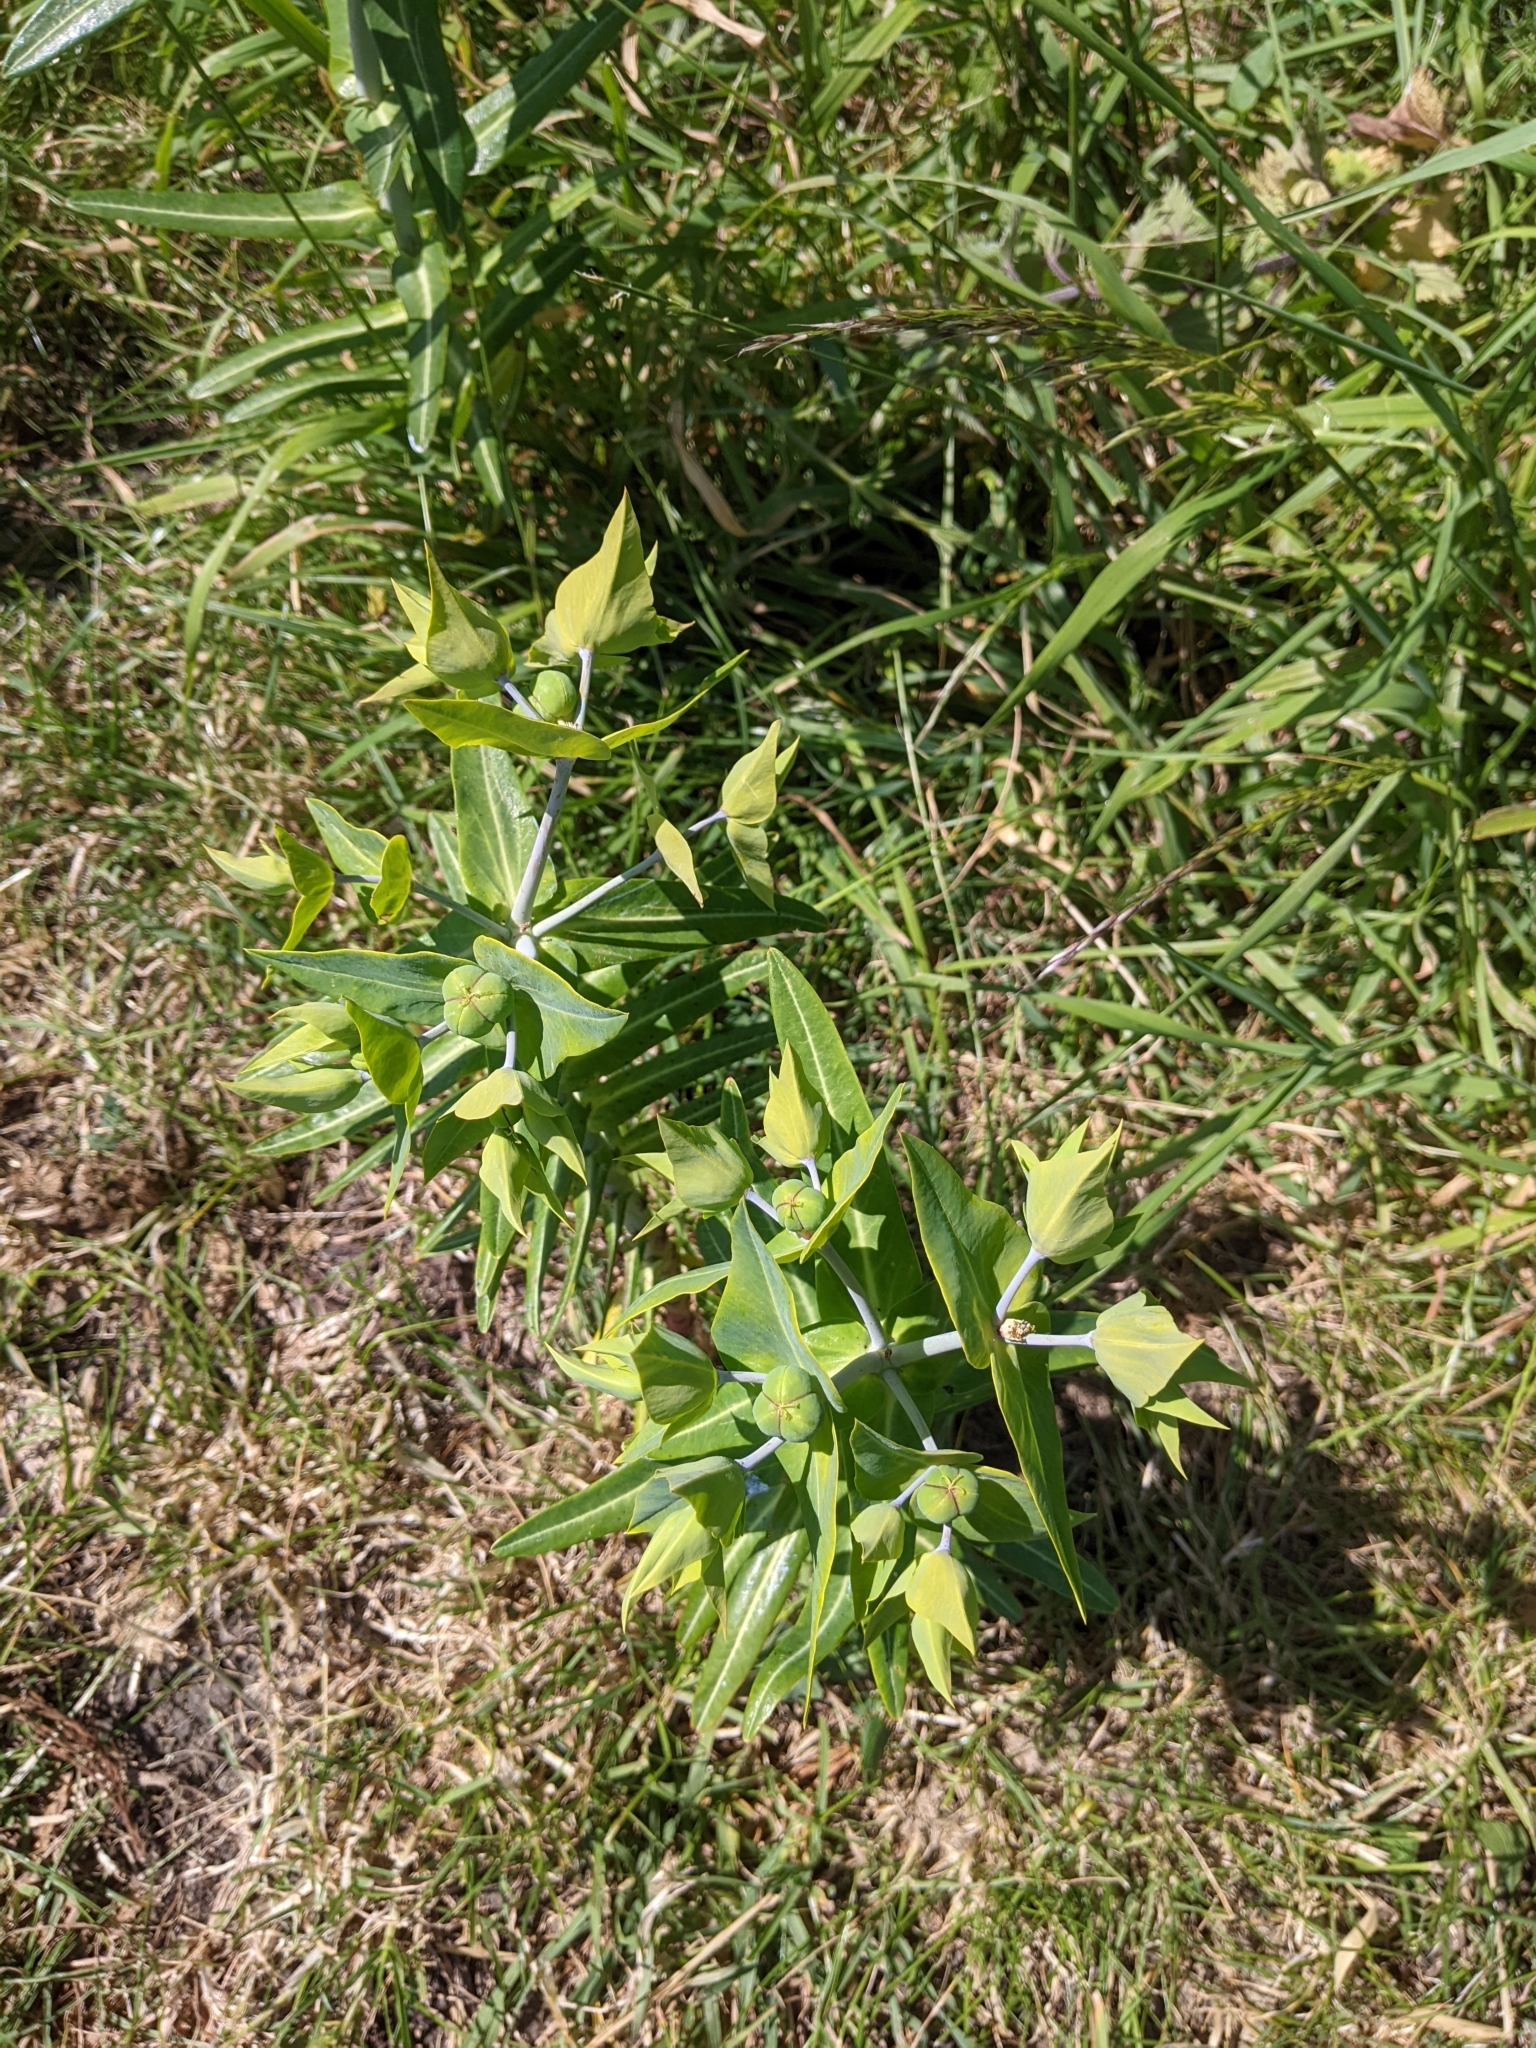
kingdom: Plantae
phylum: Tracheophyta
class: Magnoliopsida
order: Malpighiales
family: Euphorbiaceae
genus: Euphorbia
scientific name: Euphorbia lathyris
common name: Caper spurge
